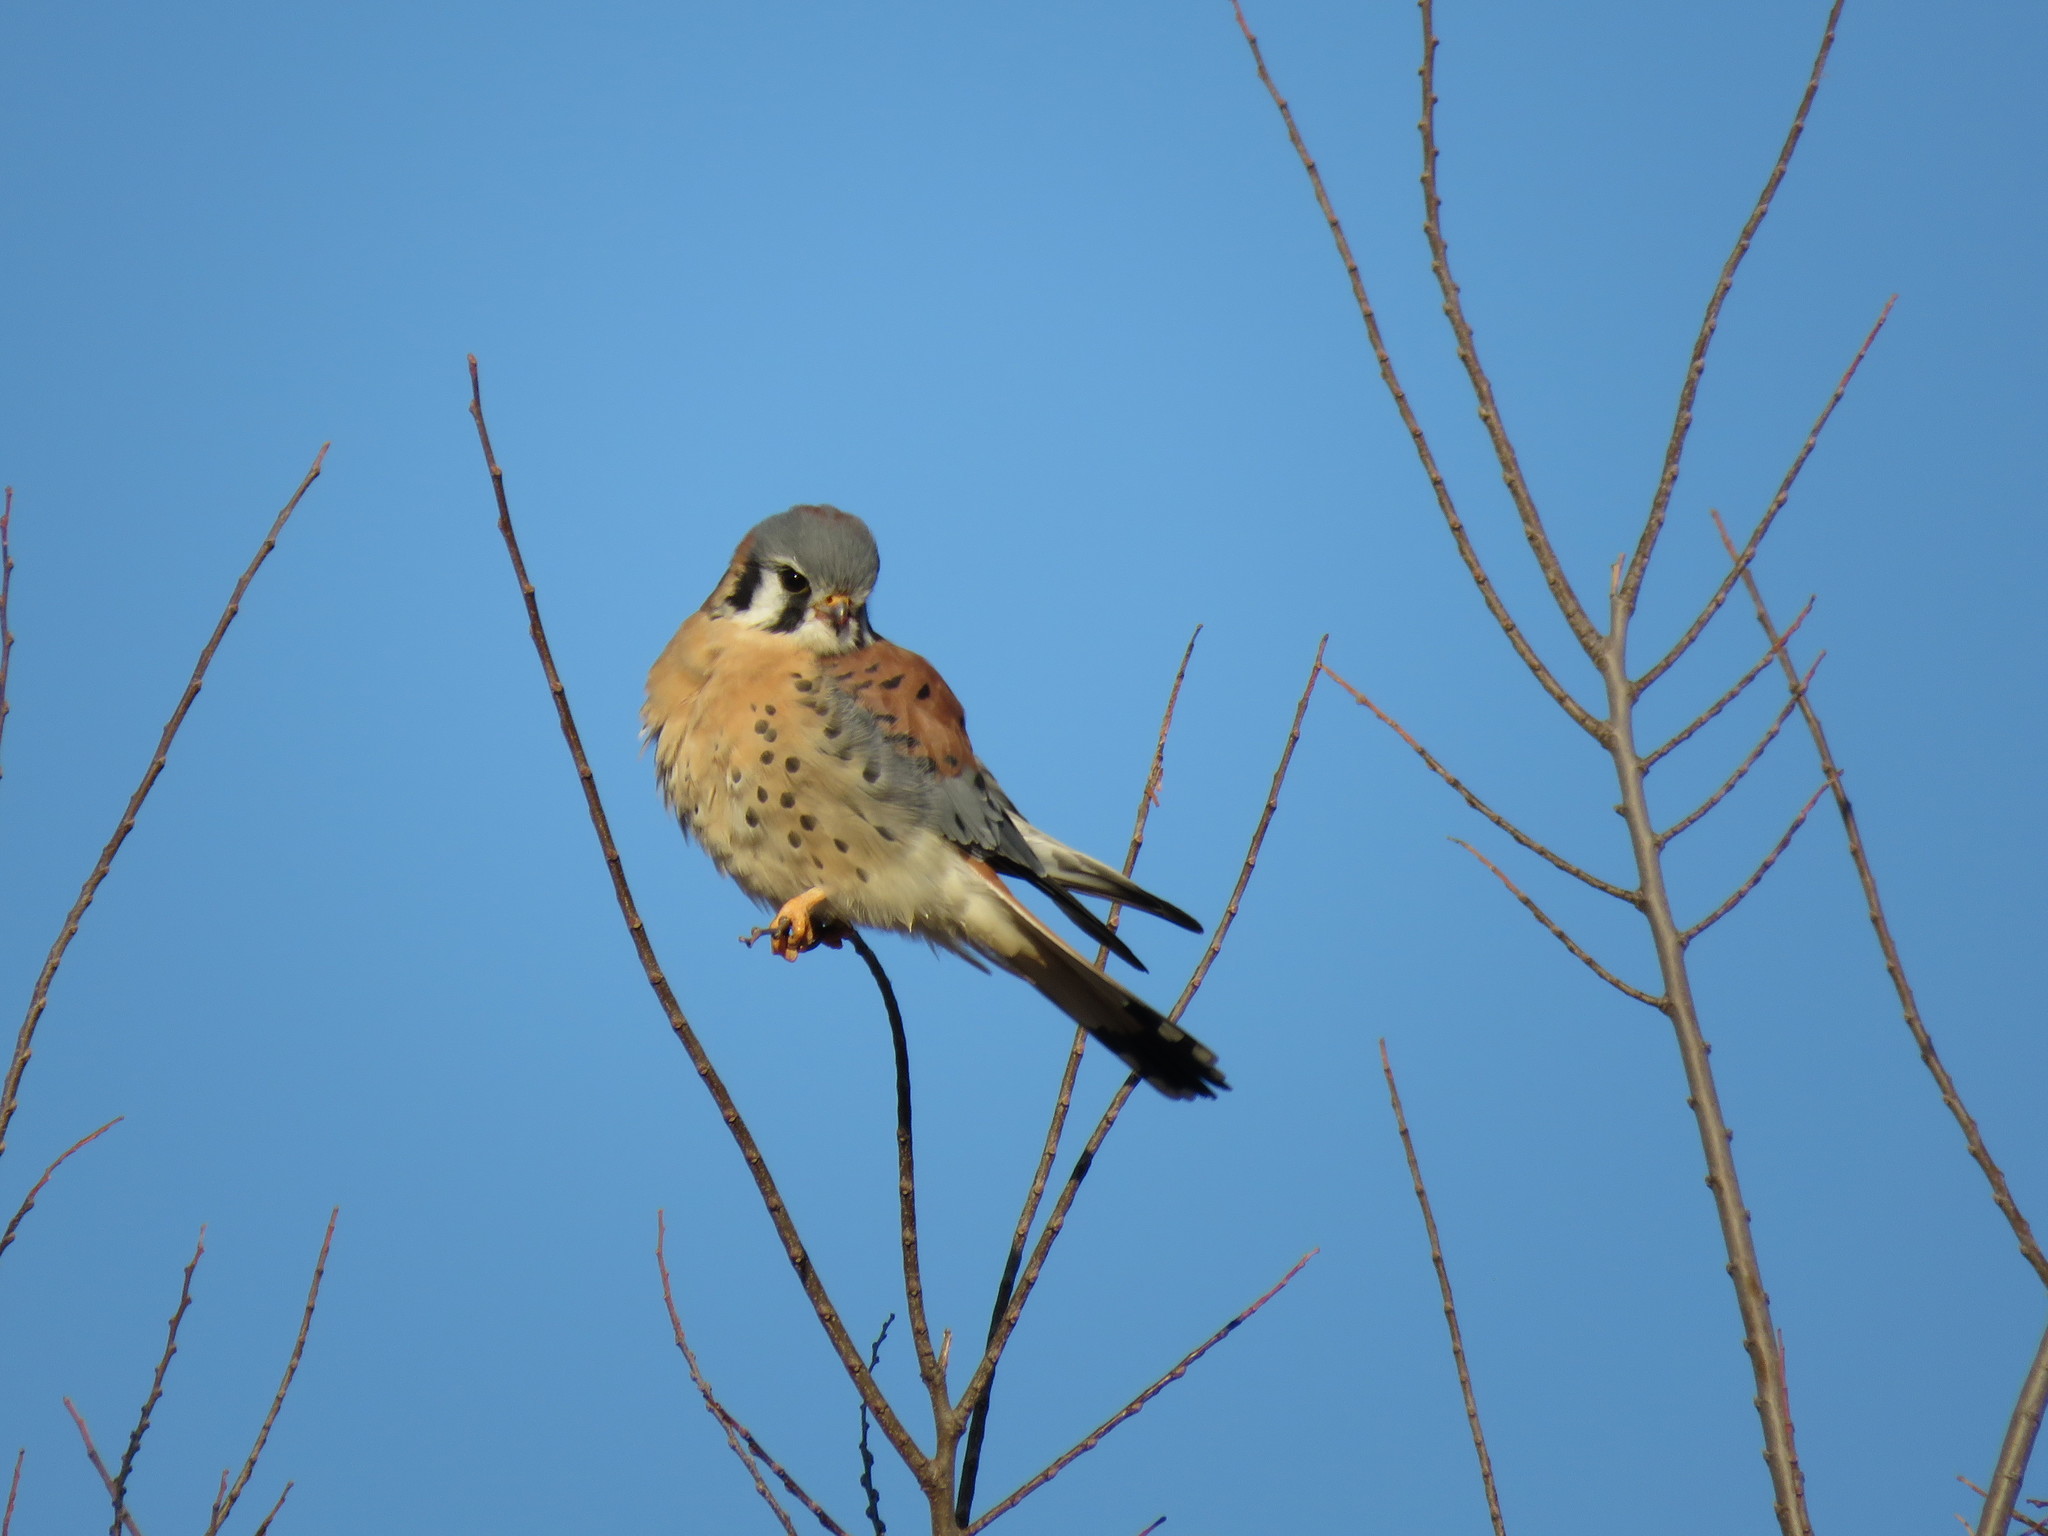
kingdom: Animalia
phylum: Chordata
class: Aves
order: Falconiformes
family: Falconidae
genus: Falco
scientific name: Falco sparverius
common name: American kestrel
